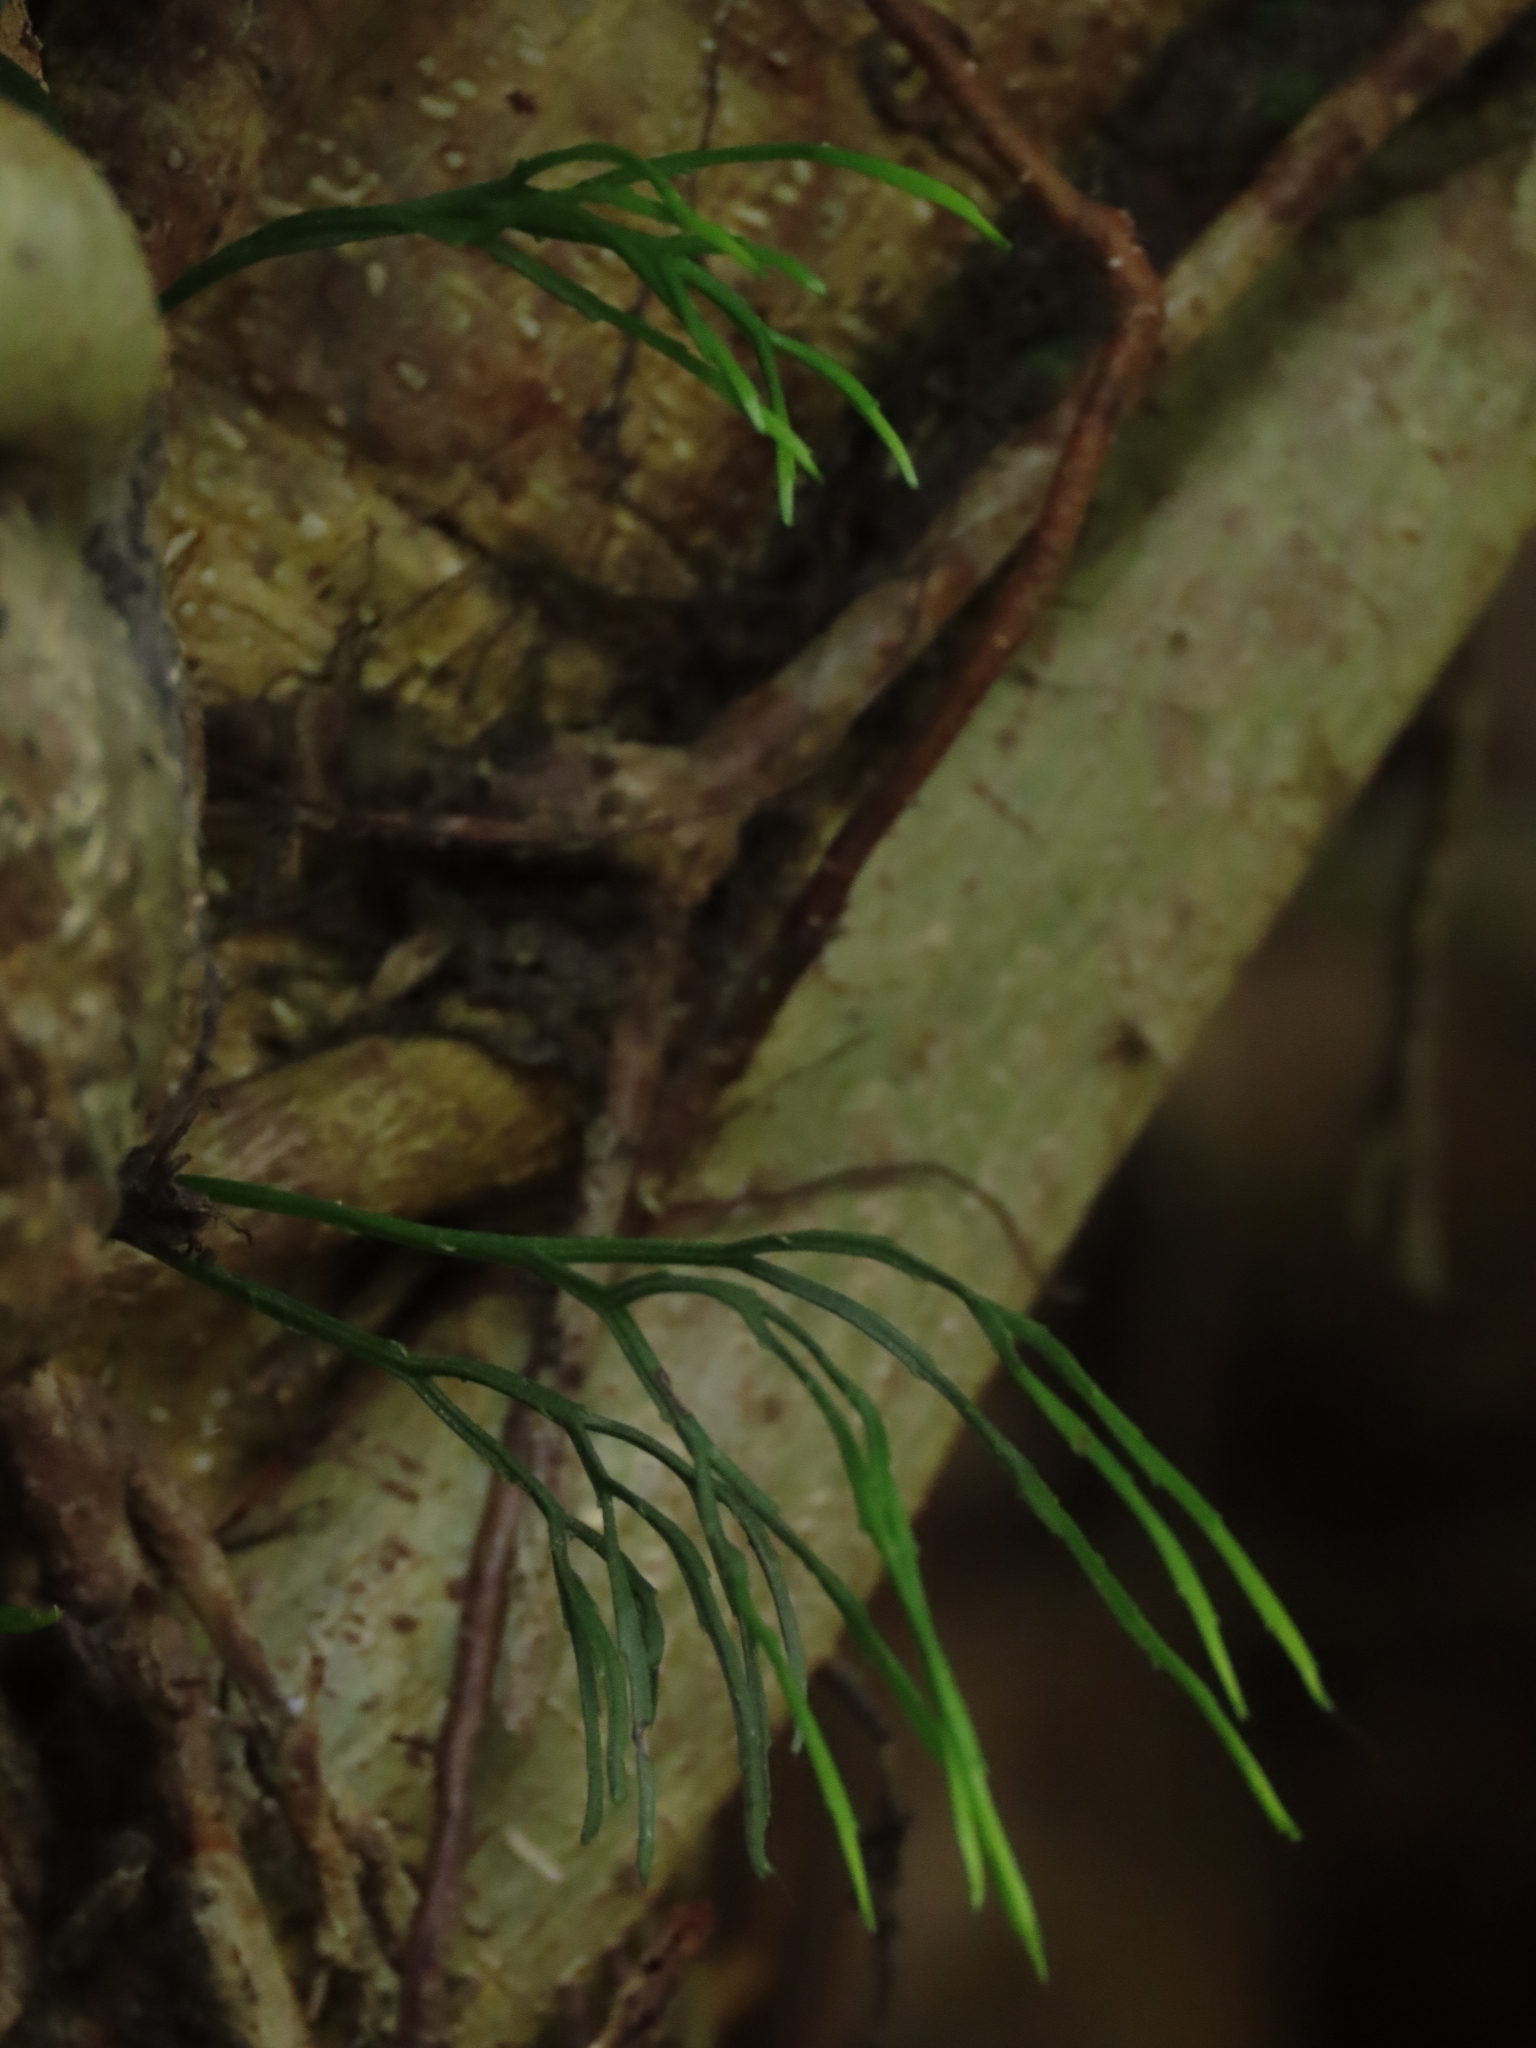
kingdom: Plantae
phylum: Tracheophyta
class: Polypodiopsida
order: Psilotales
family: Psilotaceae
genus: Psilotum
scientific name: Psilotum nudum
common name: Skeleton fork fern
